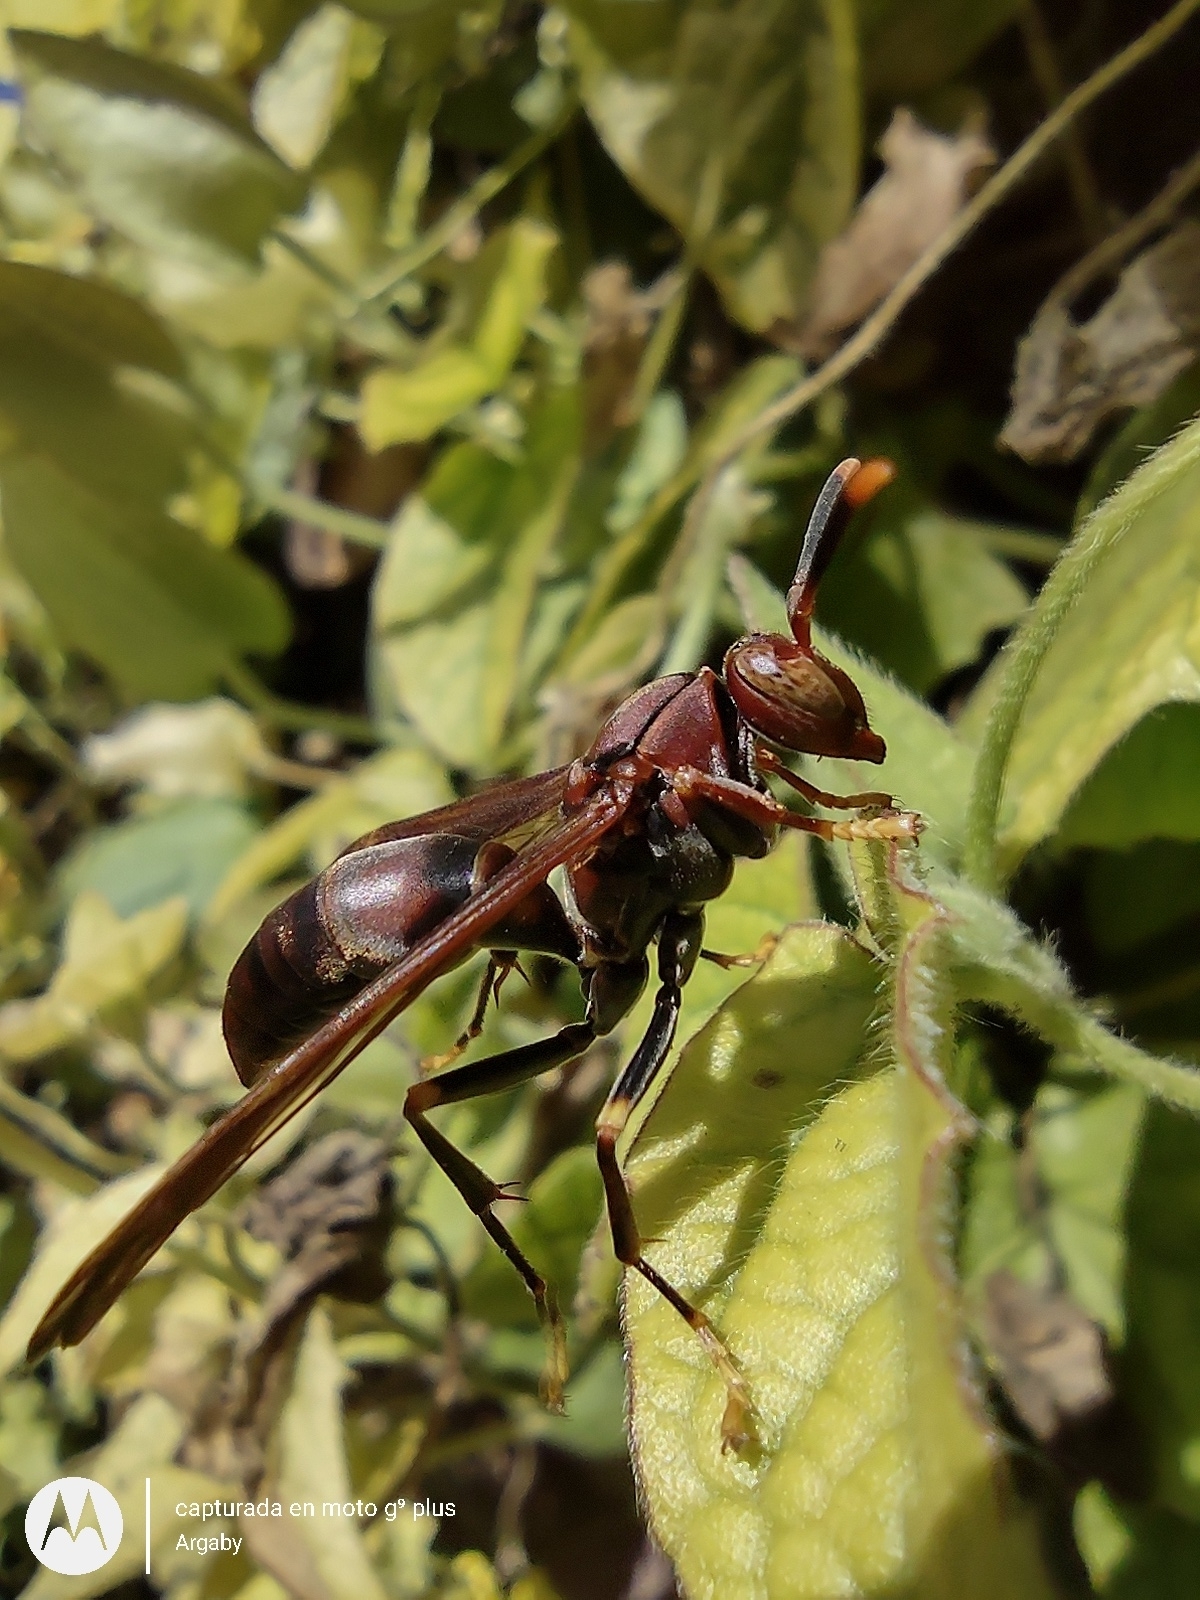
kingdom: Animalia
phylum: Arthropoda
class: Insecta
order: Hymenoptera
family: Pompilidae
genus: Aphanilopterus
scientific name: Aphanilopterus
